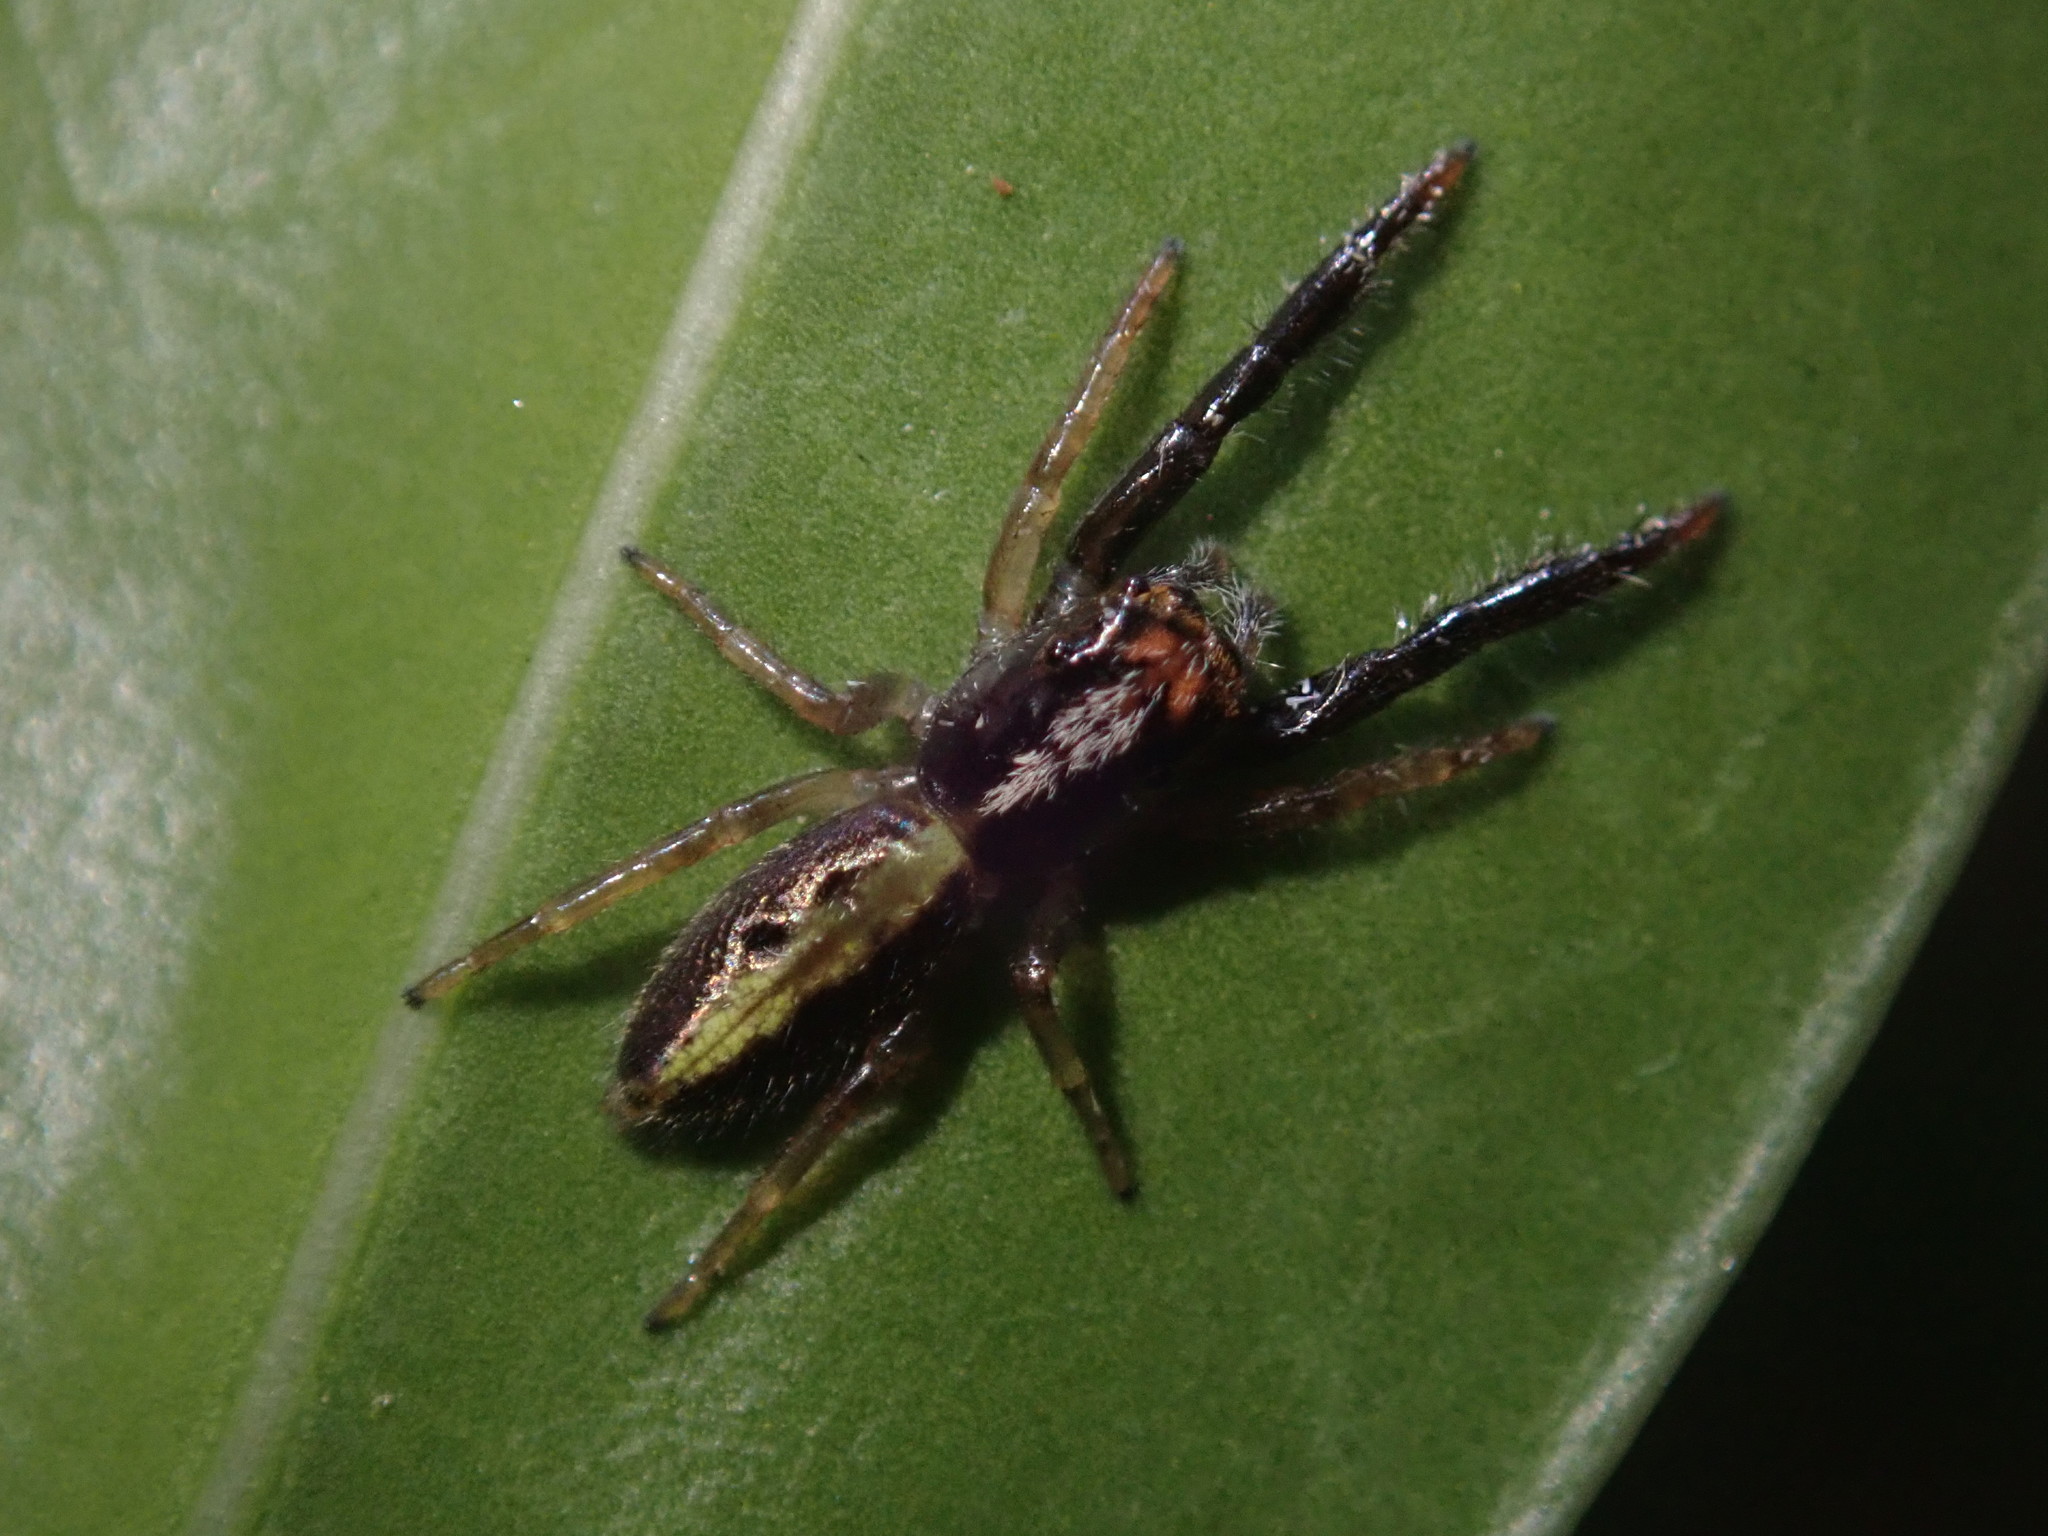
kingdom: Animalia
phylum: Arthropoda
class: Arachnida
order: Araneae
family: Salticidae
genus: Trite
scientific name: Trite planiceps
